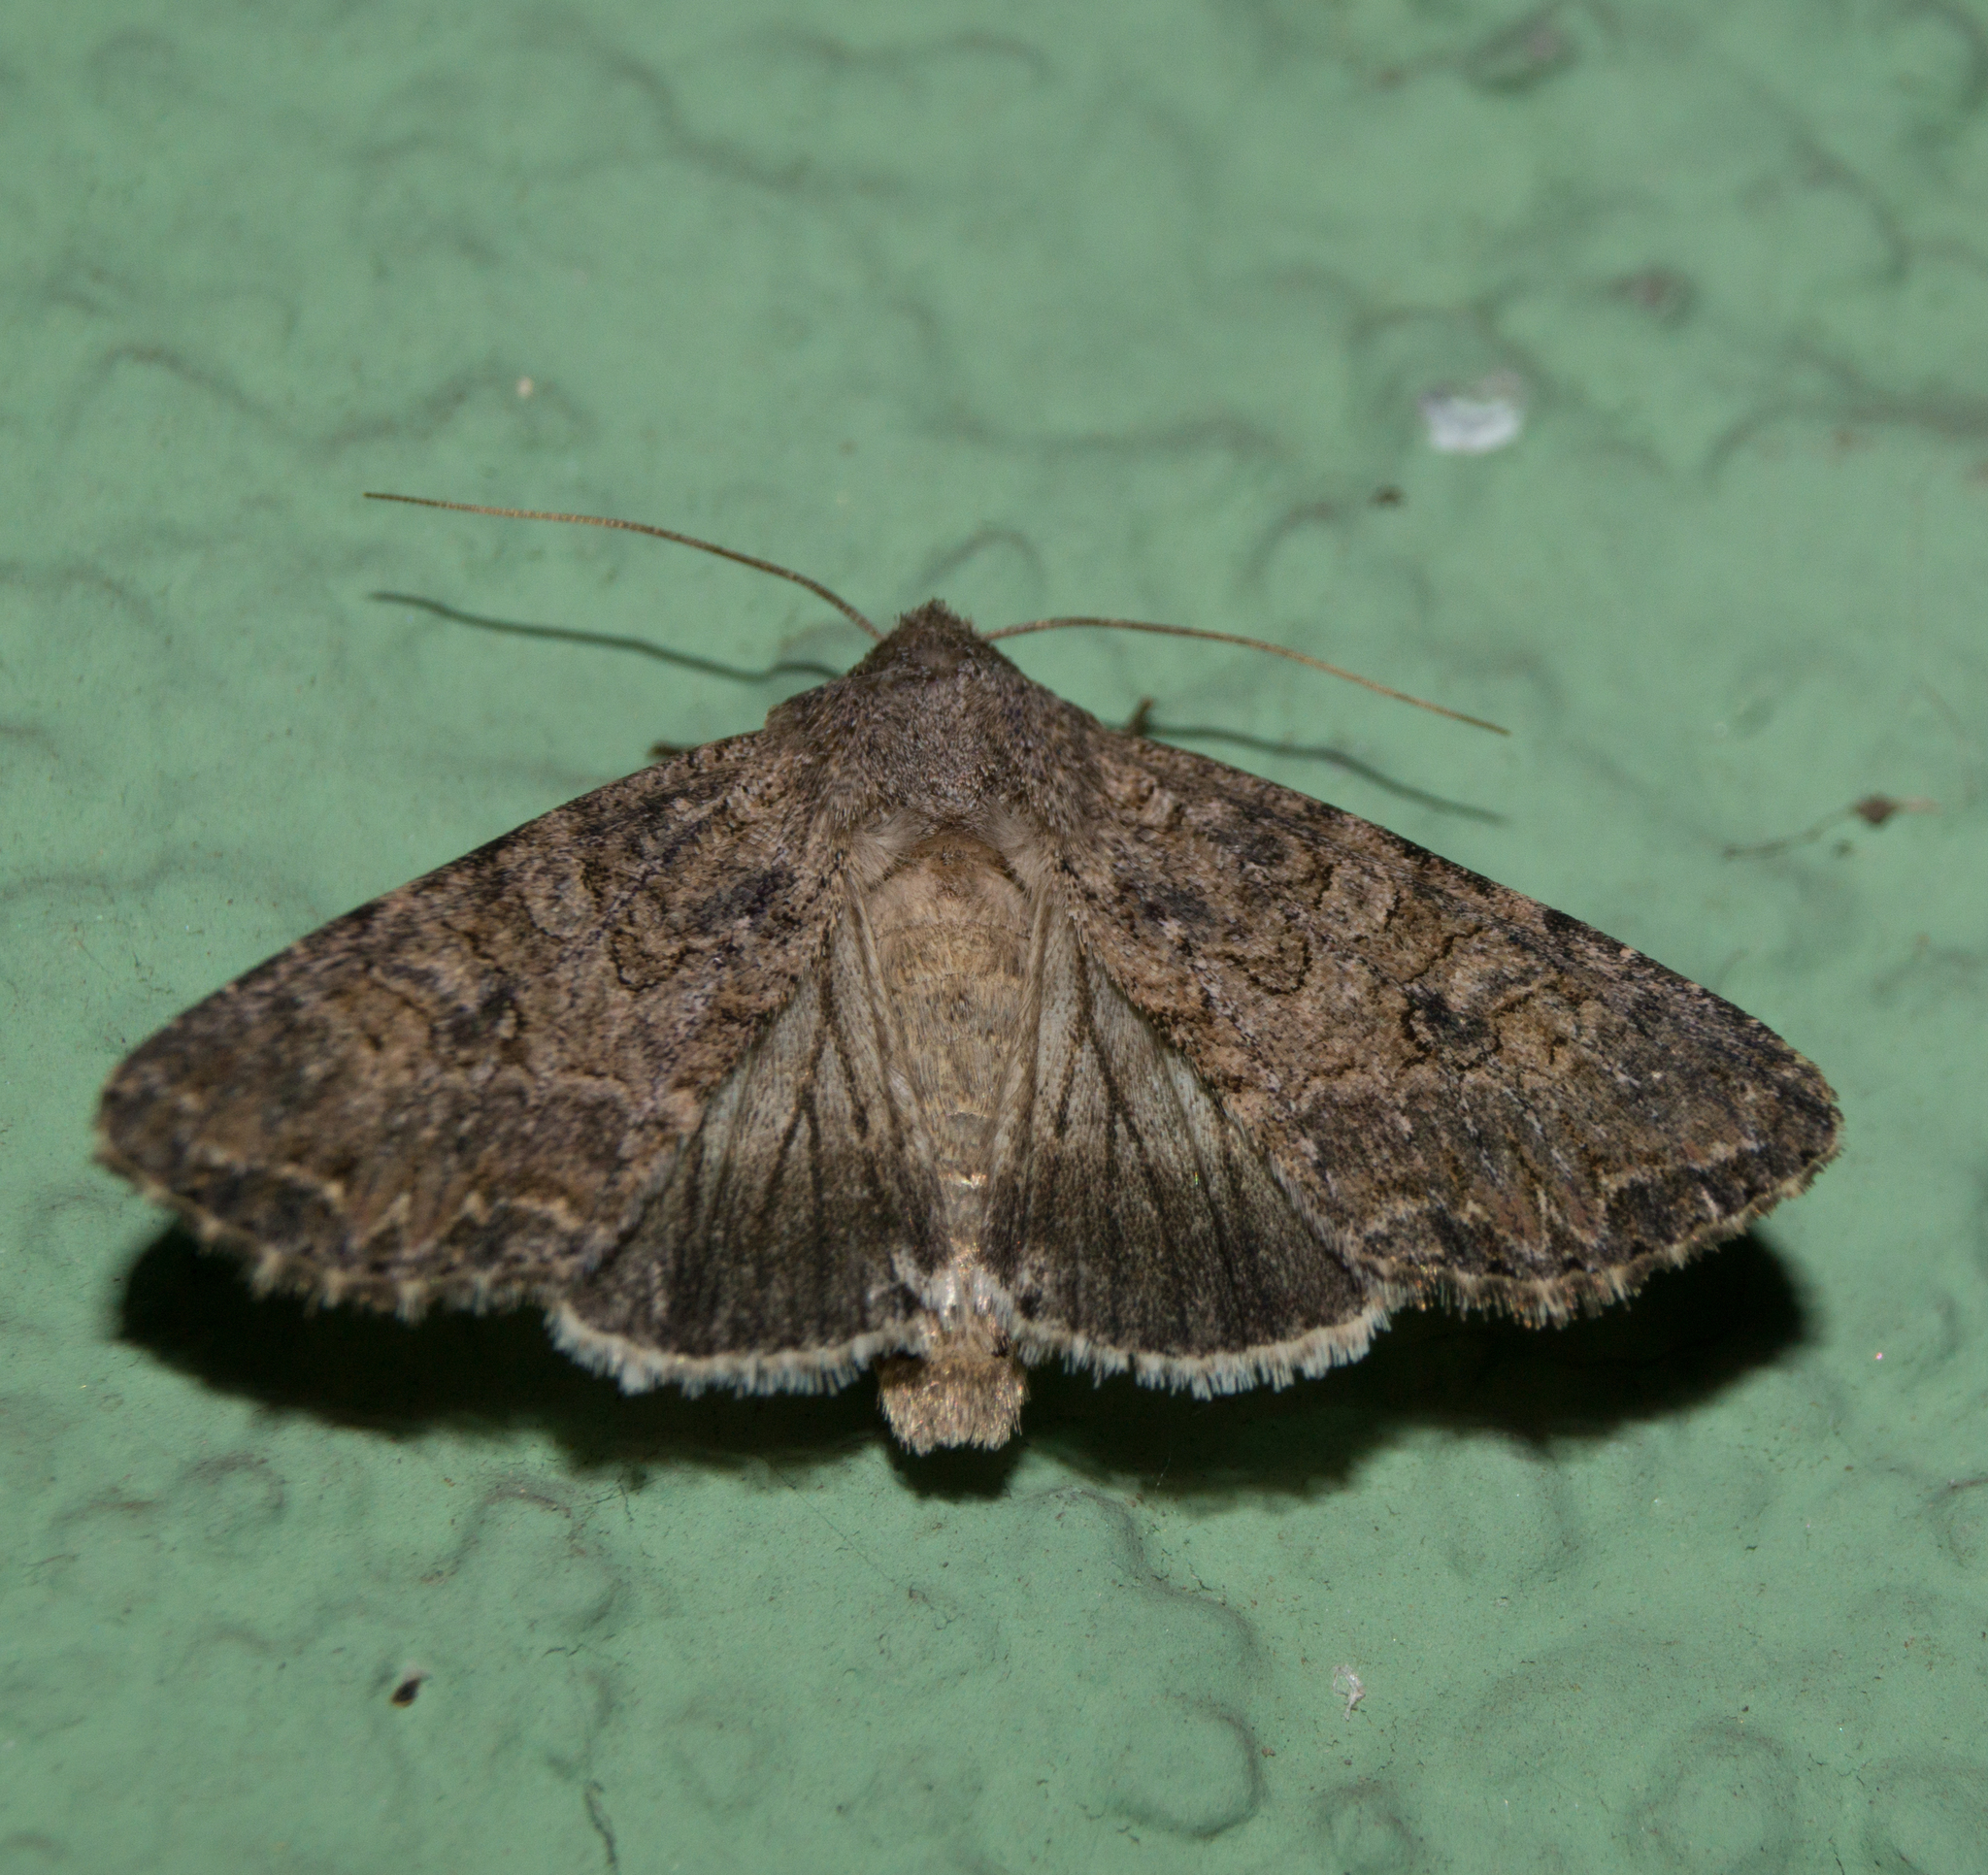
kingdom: Animalia
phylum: Arthropoda
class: Insecta
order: Lepidoptera
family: Noctuidae
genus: Anarta
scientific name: Anarta trifolii
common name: Clover cutworm moth
